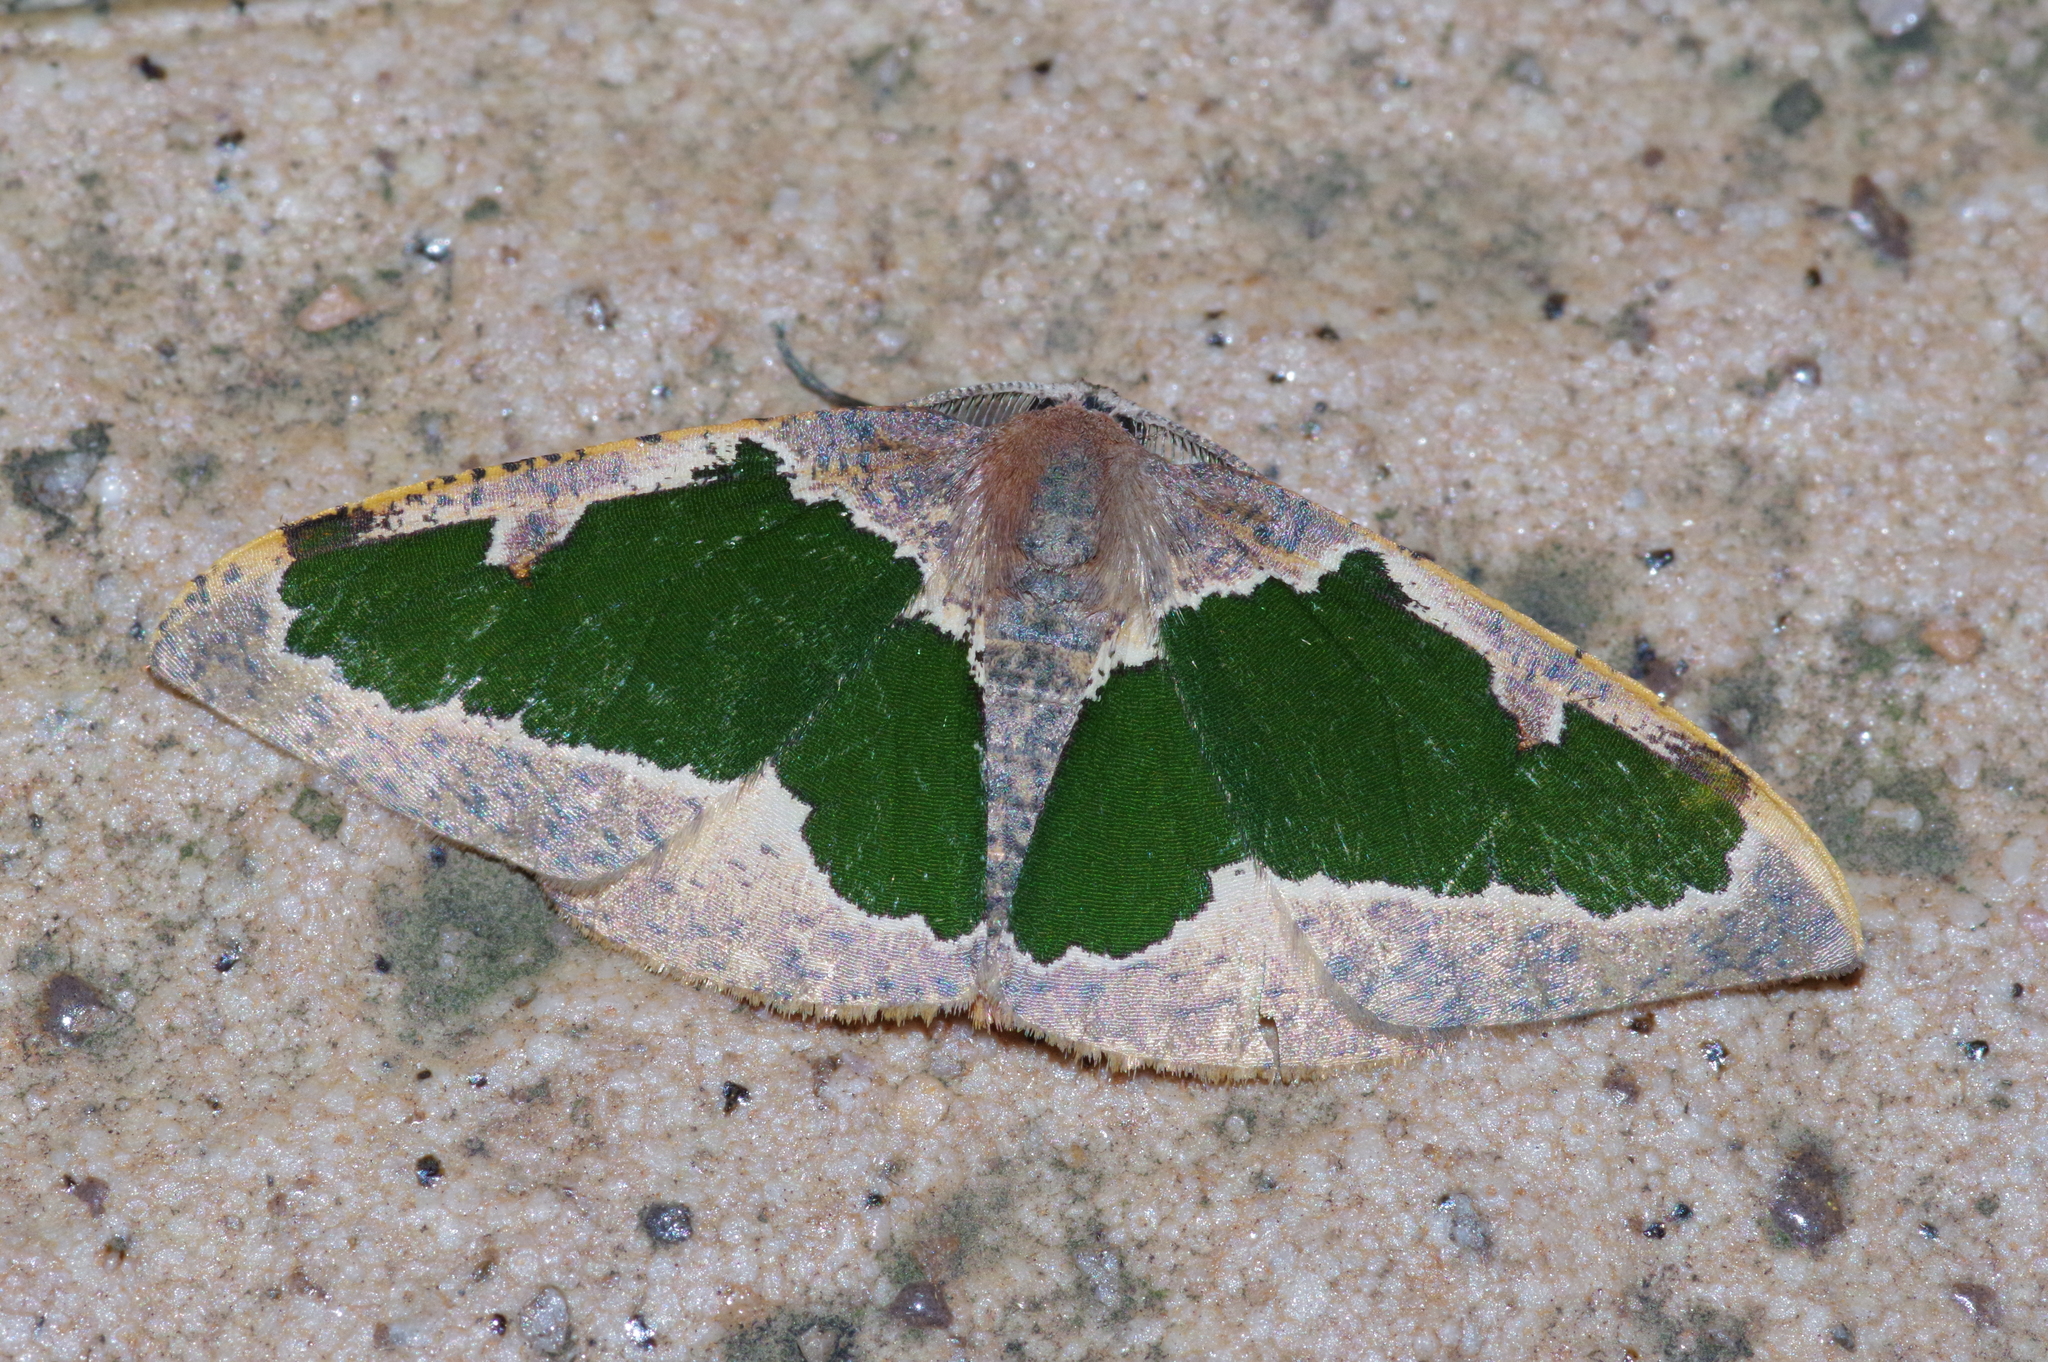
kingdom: Animalia
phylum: Arthropoda
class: Insecta
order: Lepidoptera
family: Geometridae
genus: Celenna
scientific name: Celenna festivaria
